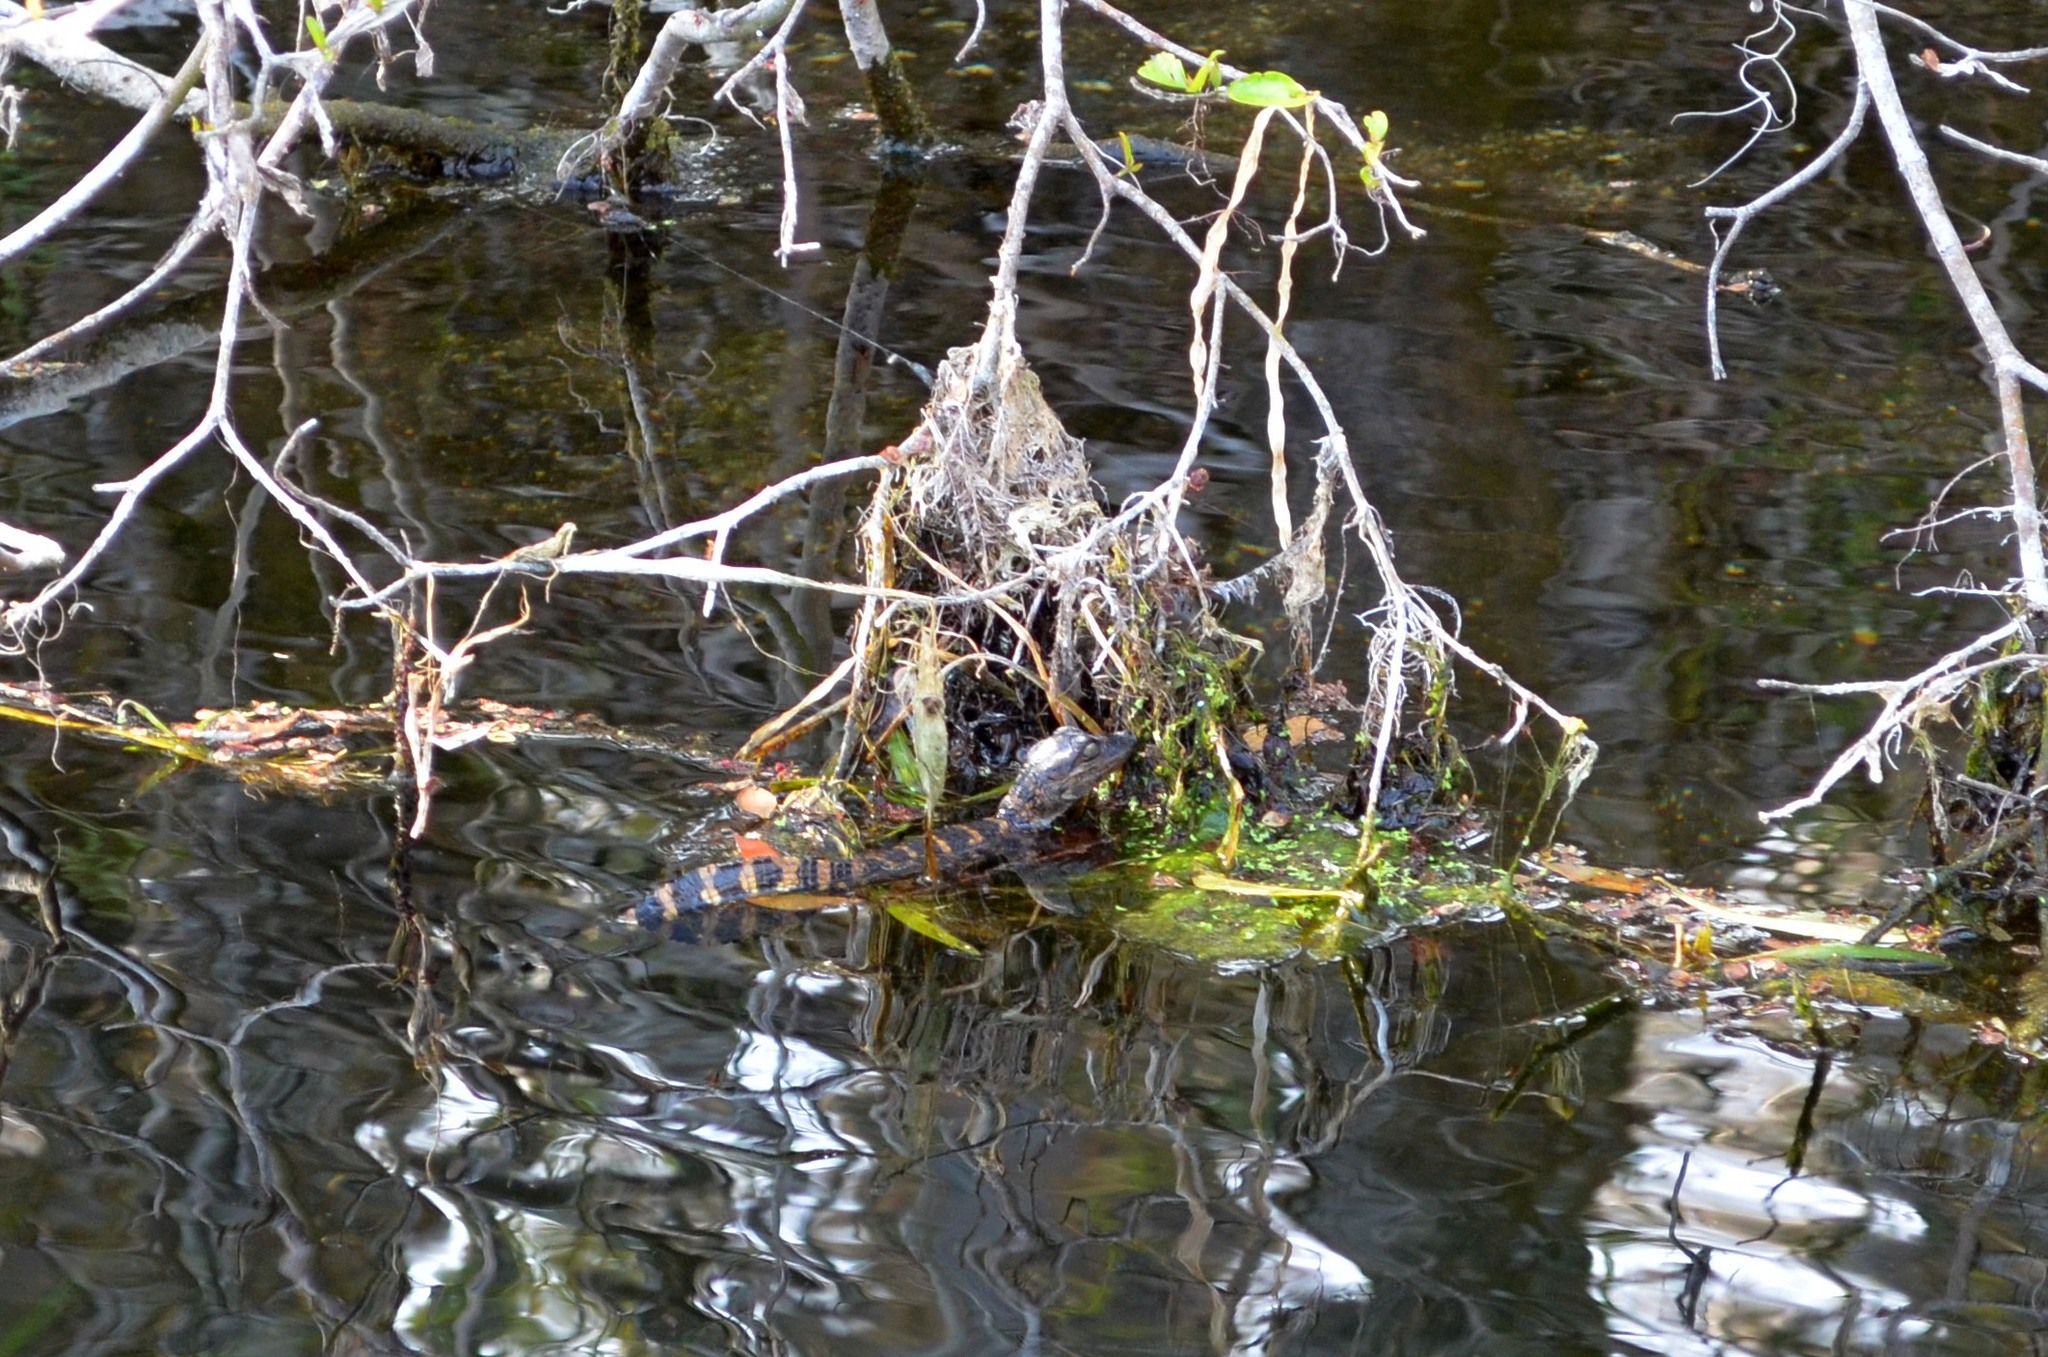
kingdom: Animalia
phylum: Chordata
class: Crocodylia
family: Alligatoridae
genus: Alligator
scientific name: Alligator mississippiensis
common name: American alligator
